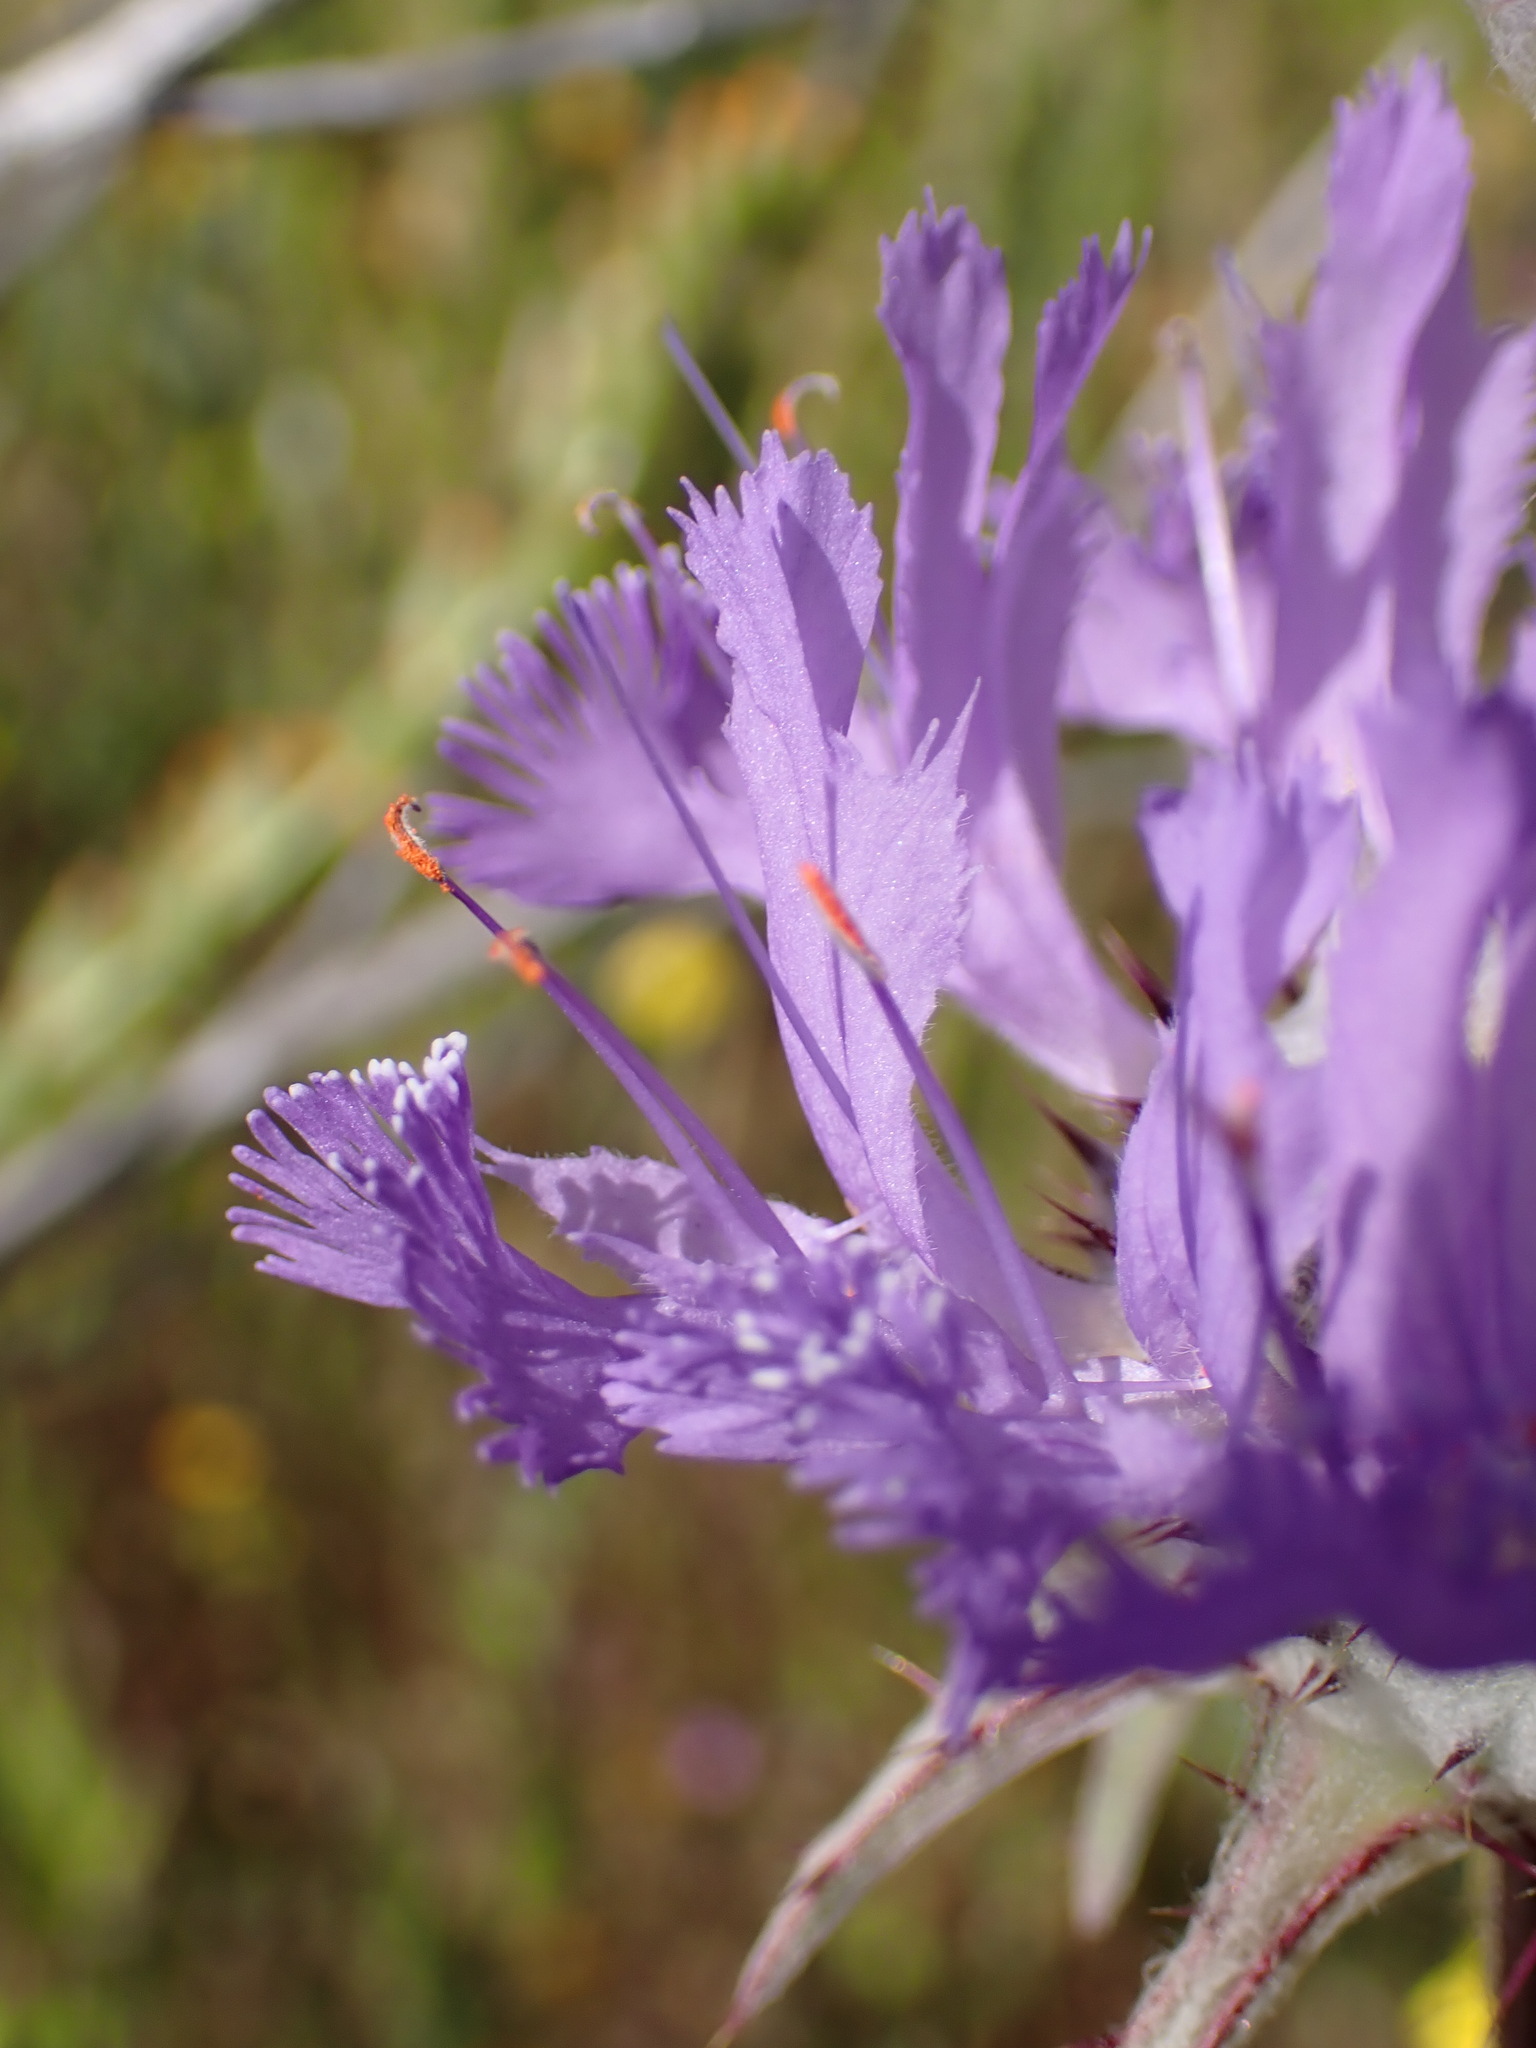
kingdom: Plantae
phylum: Tracheophyta
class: Magnoliopsida
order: Lamiales
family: Lamiaceae
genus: Salvia
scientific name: Salvia carduacea
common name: Thistle sage
